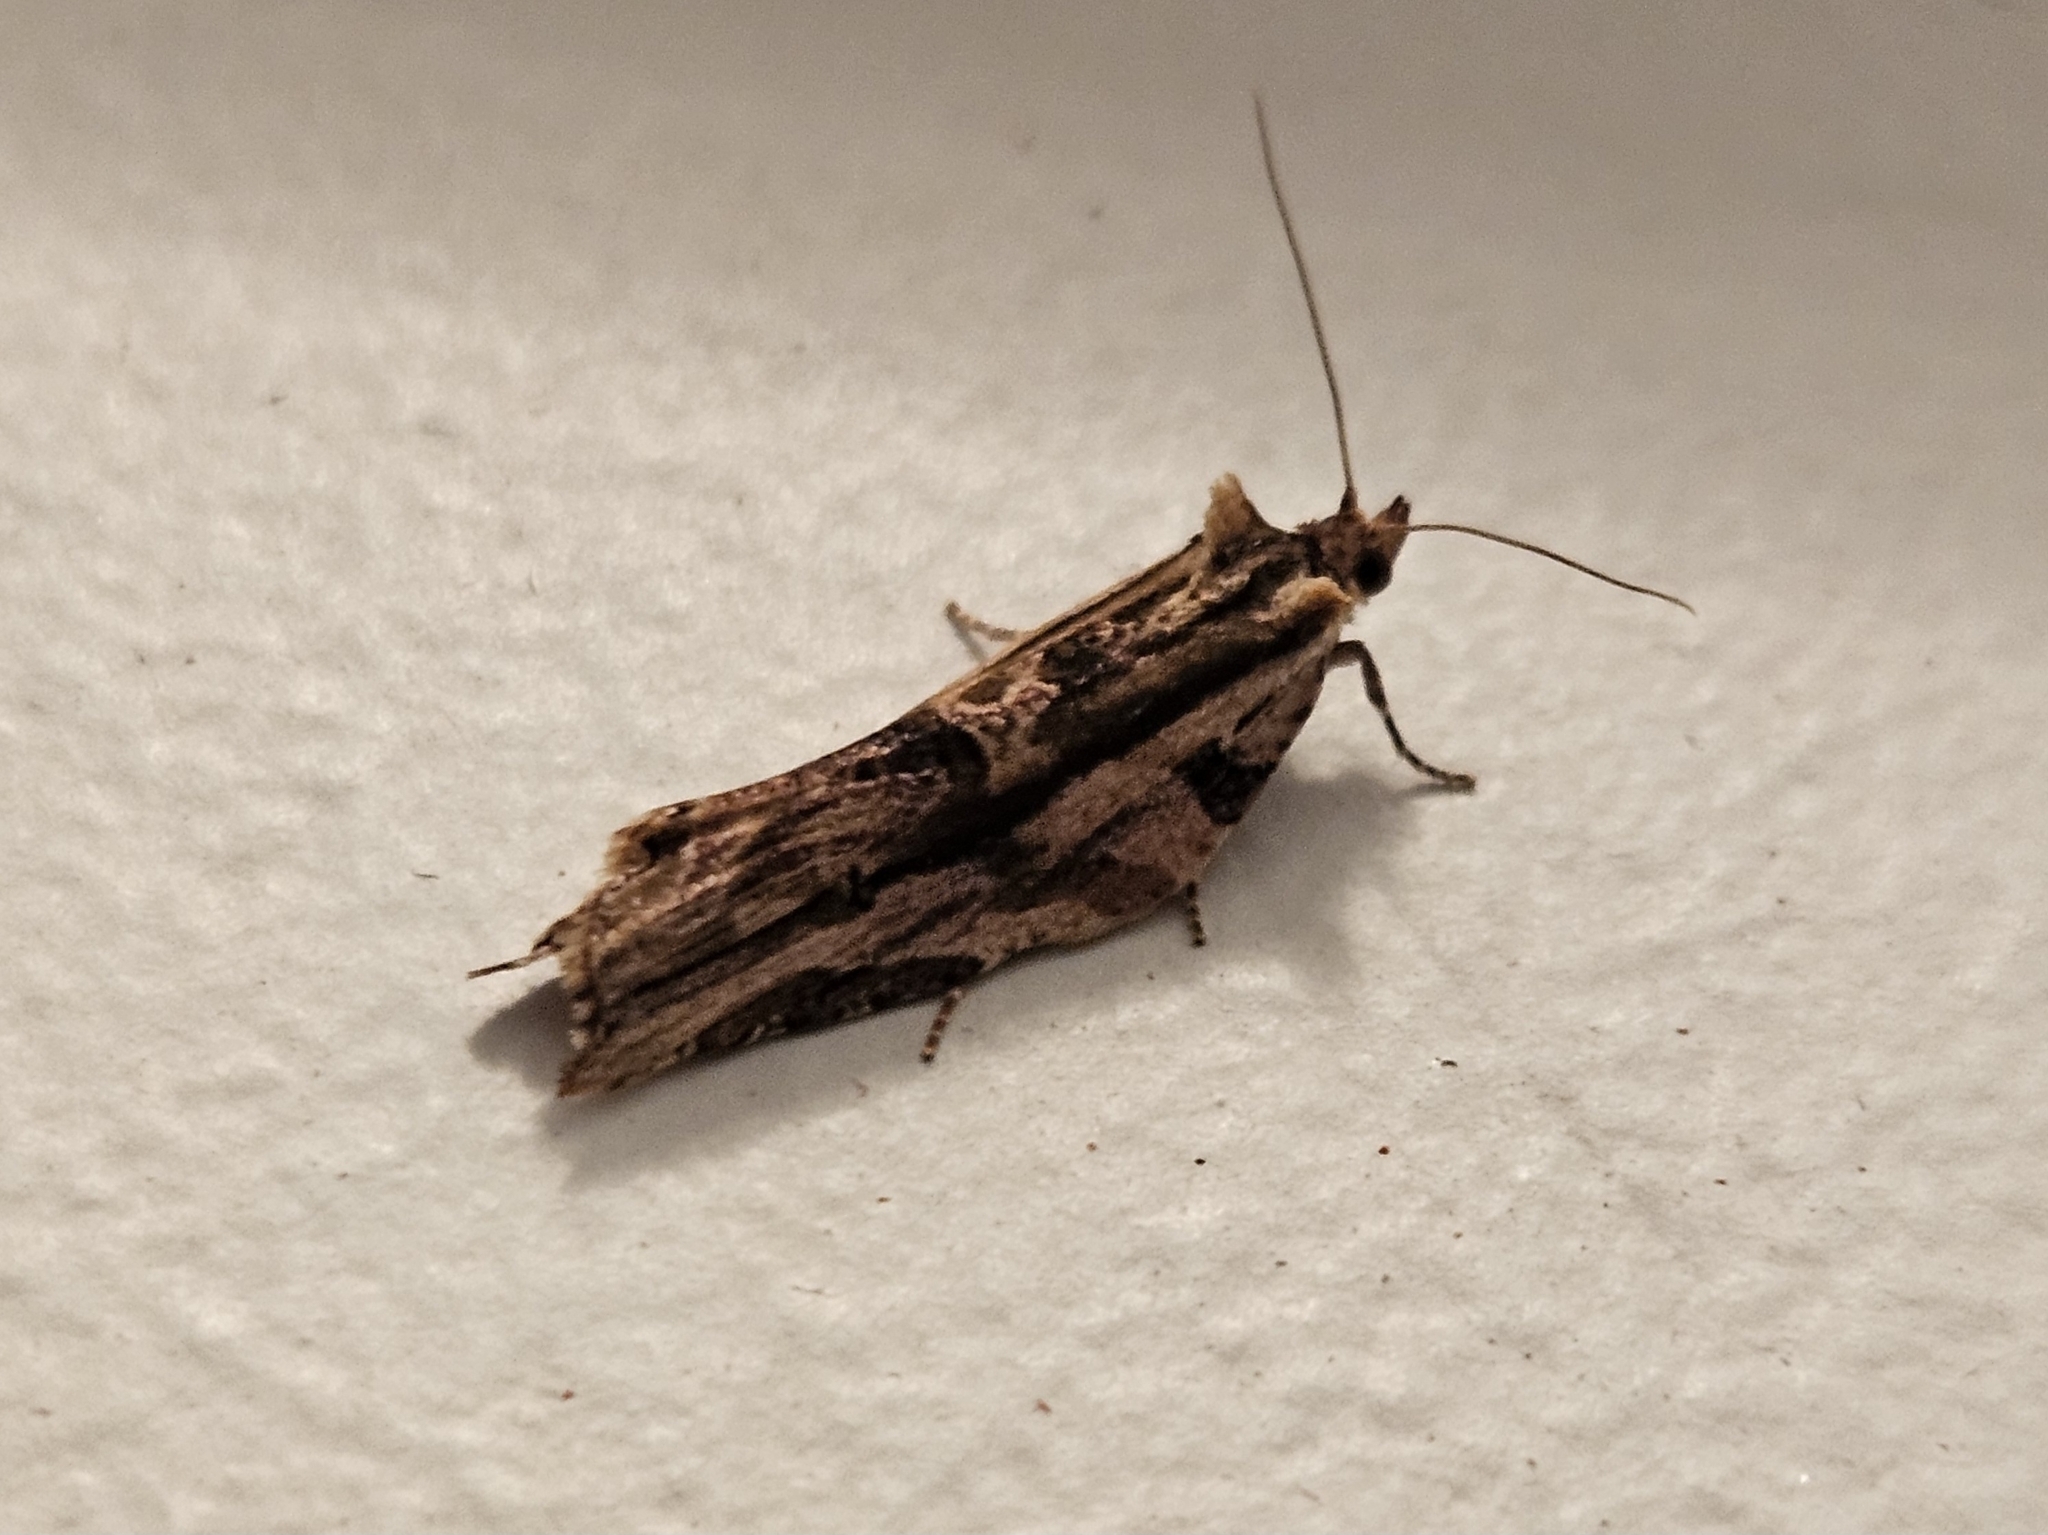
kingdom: Animalia
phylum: Arthropoda
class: Insecta
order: Lepidoptera
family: Tortricidae
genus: Epalxiphora
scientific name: Epalxiphora axenana
